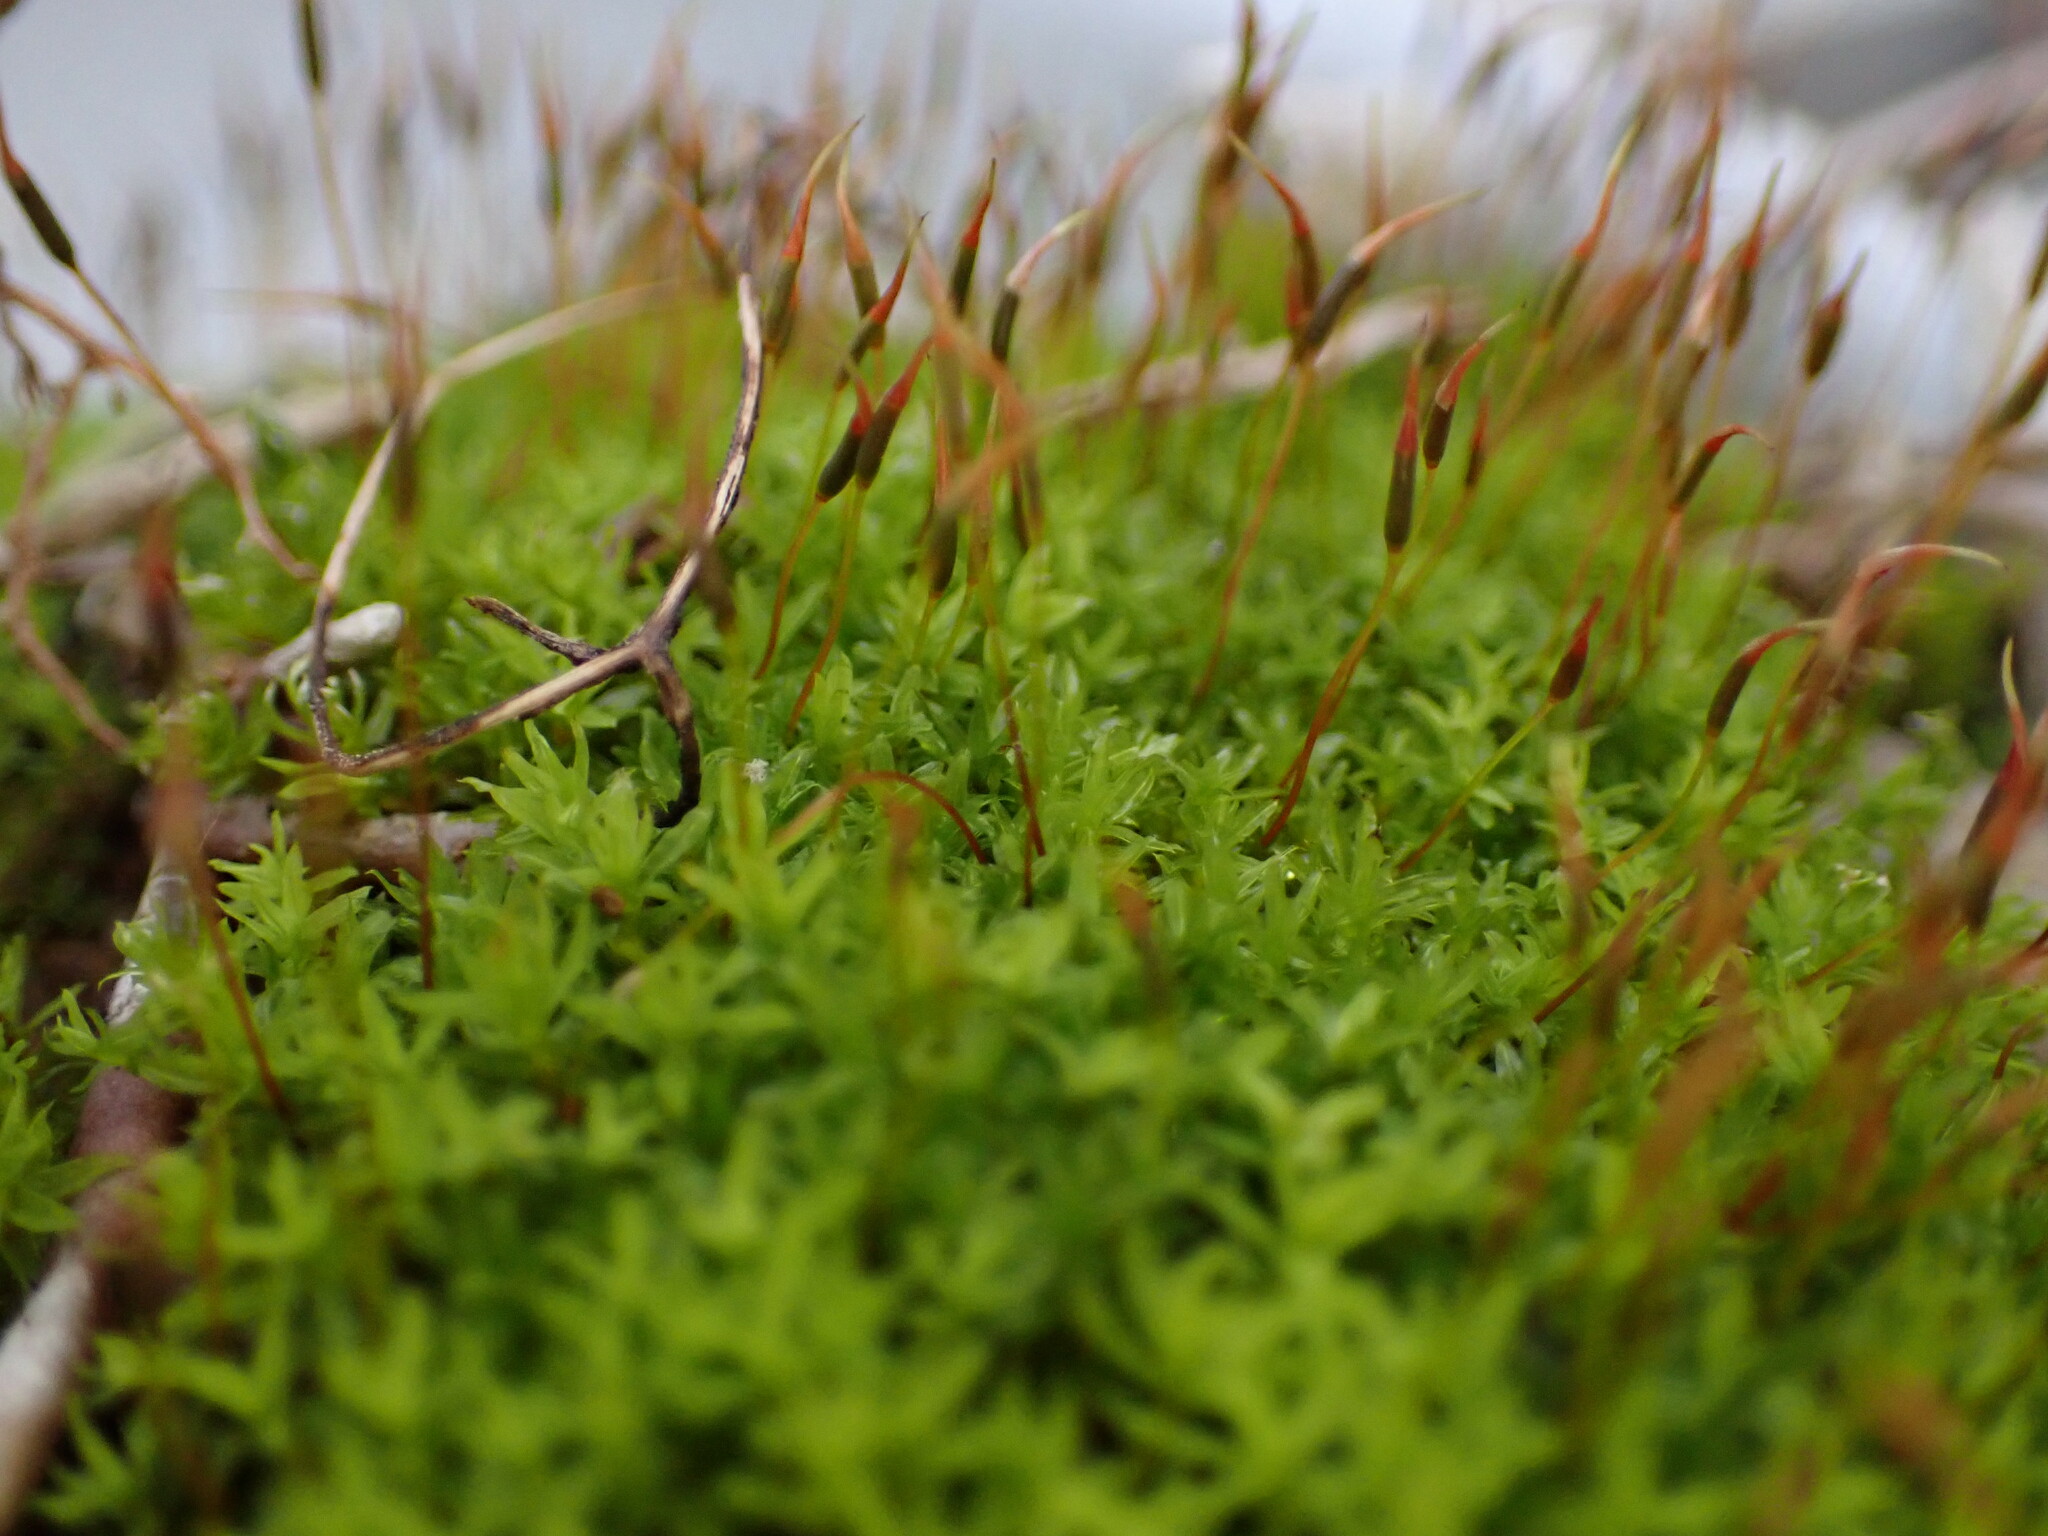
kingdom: Plantae
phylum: Bryophyta
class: Bryopsida
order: Pottiales
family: Pottiaceae
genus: Barbula
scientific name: Barbula unguiculata
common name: Prickly beard moss
